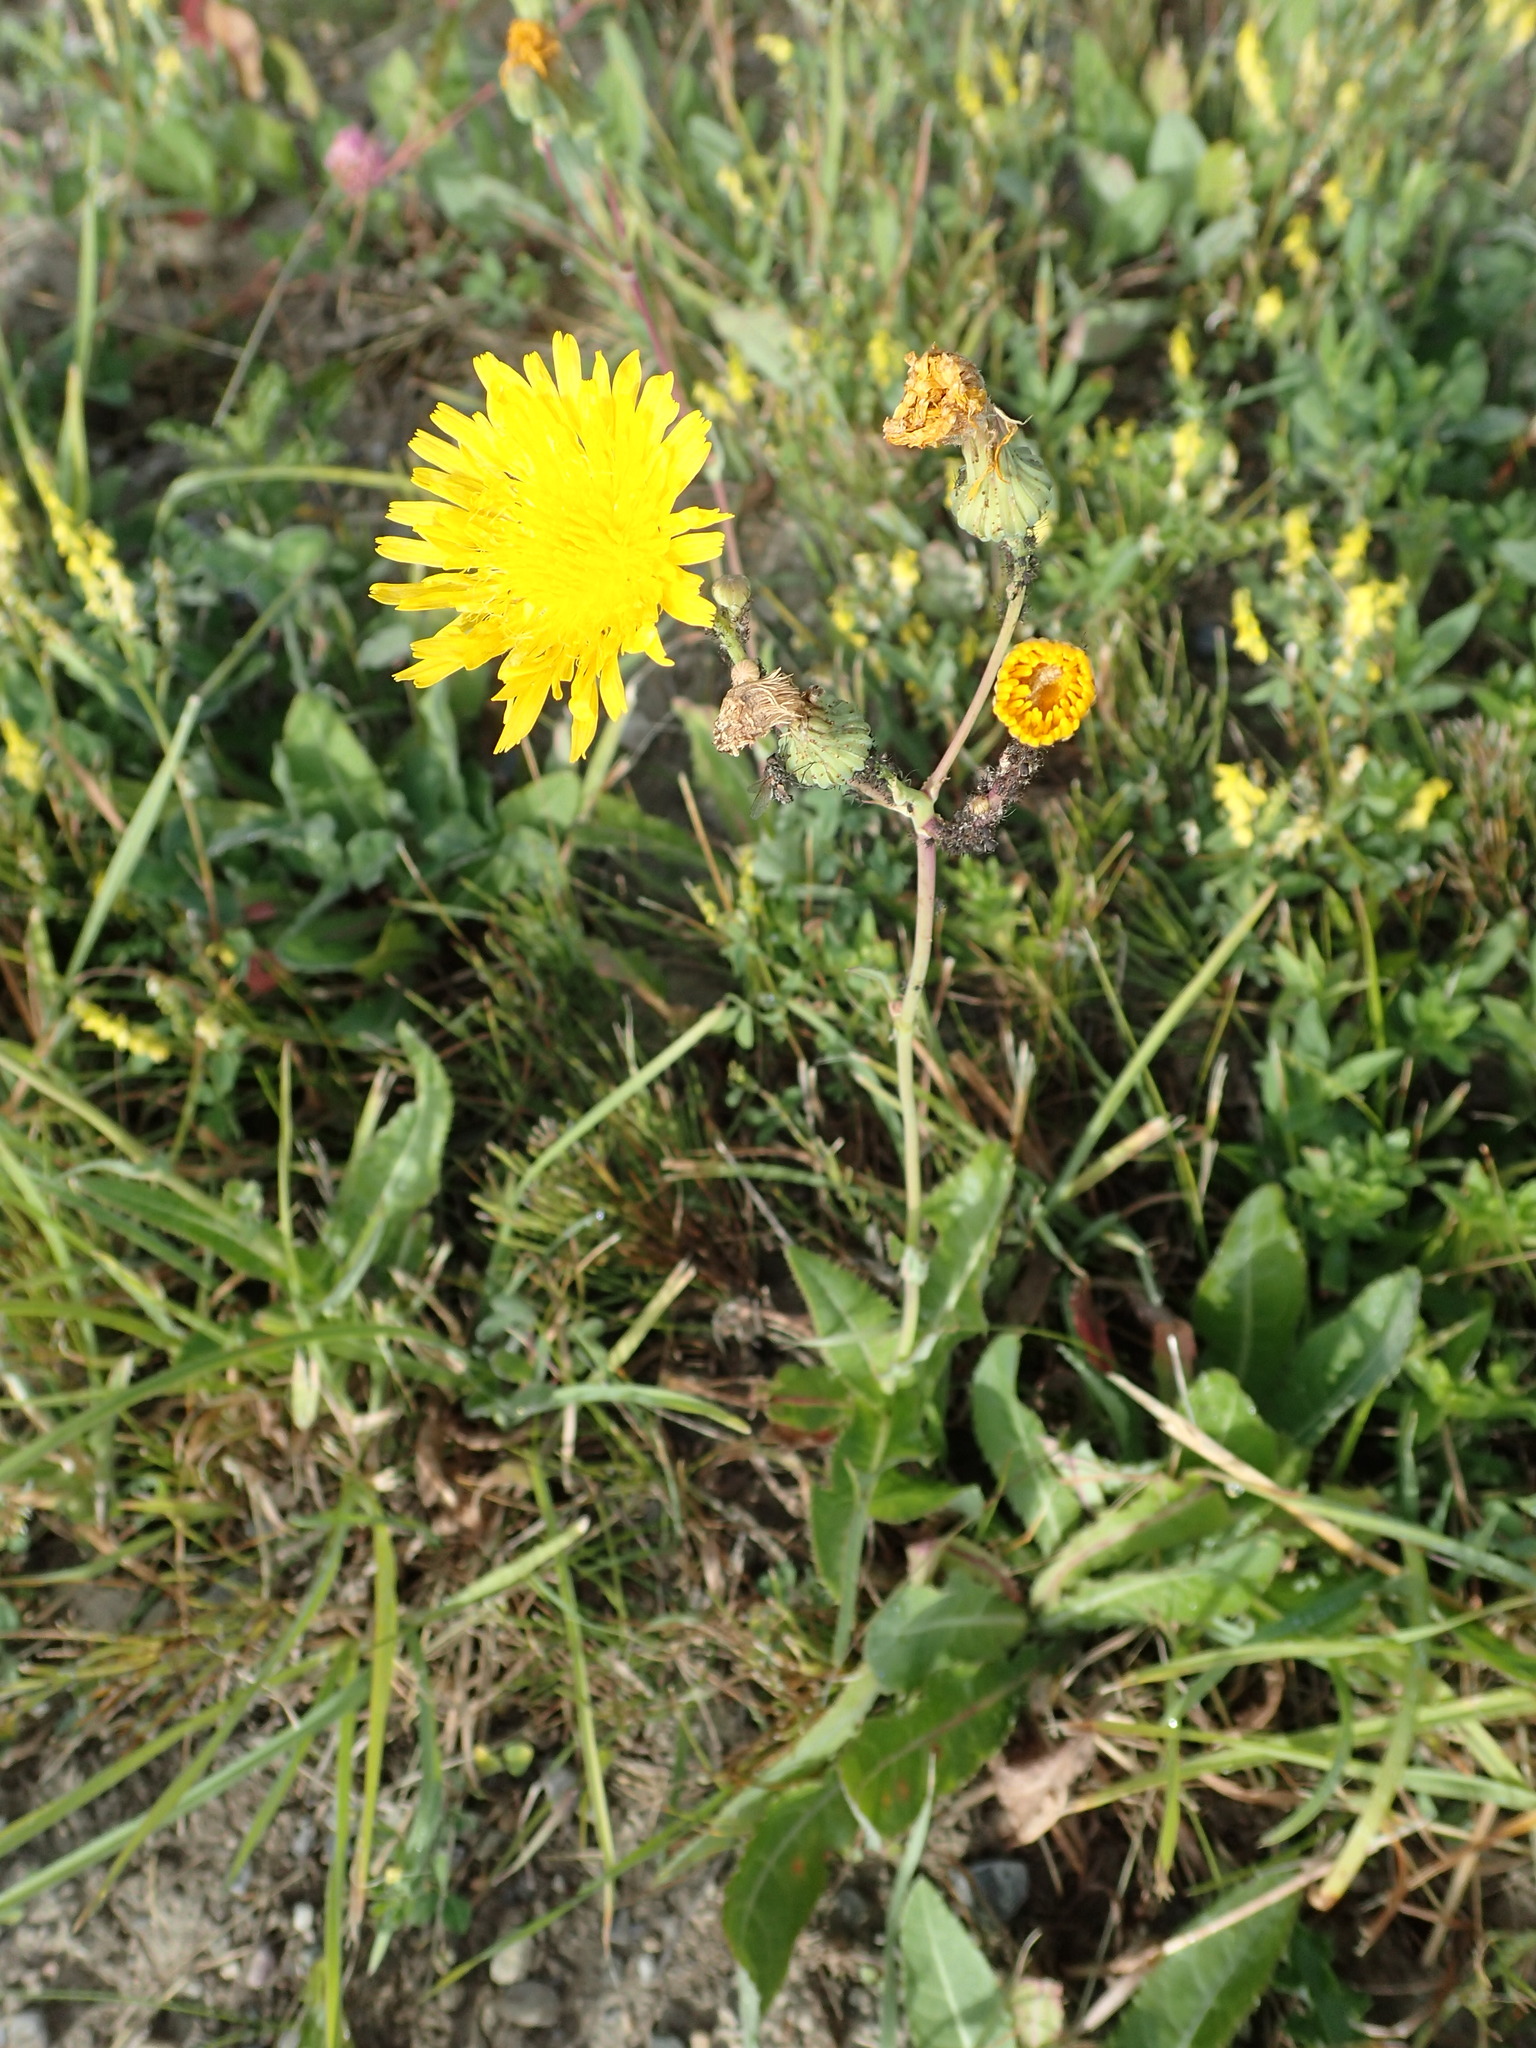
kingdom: Plantae
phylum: Tracheophyta
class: Magnoliopsida
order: Asterales
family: Asteraceae
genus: Sonchus
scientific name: Sonchus arvensis
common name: Perennial sow-thistle
